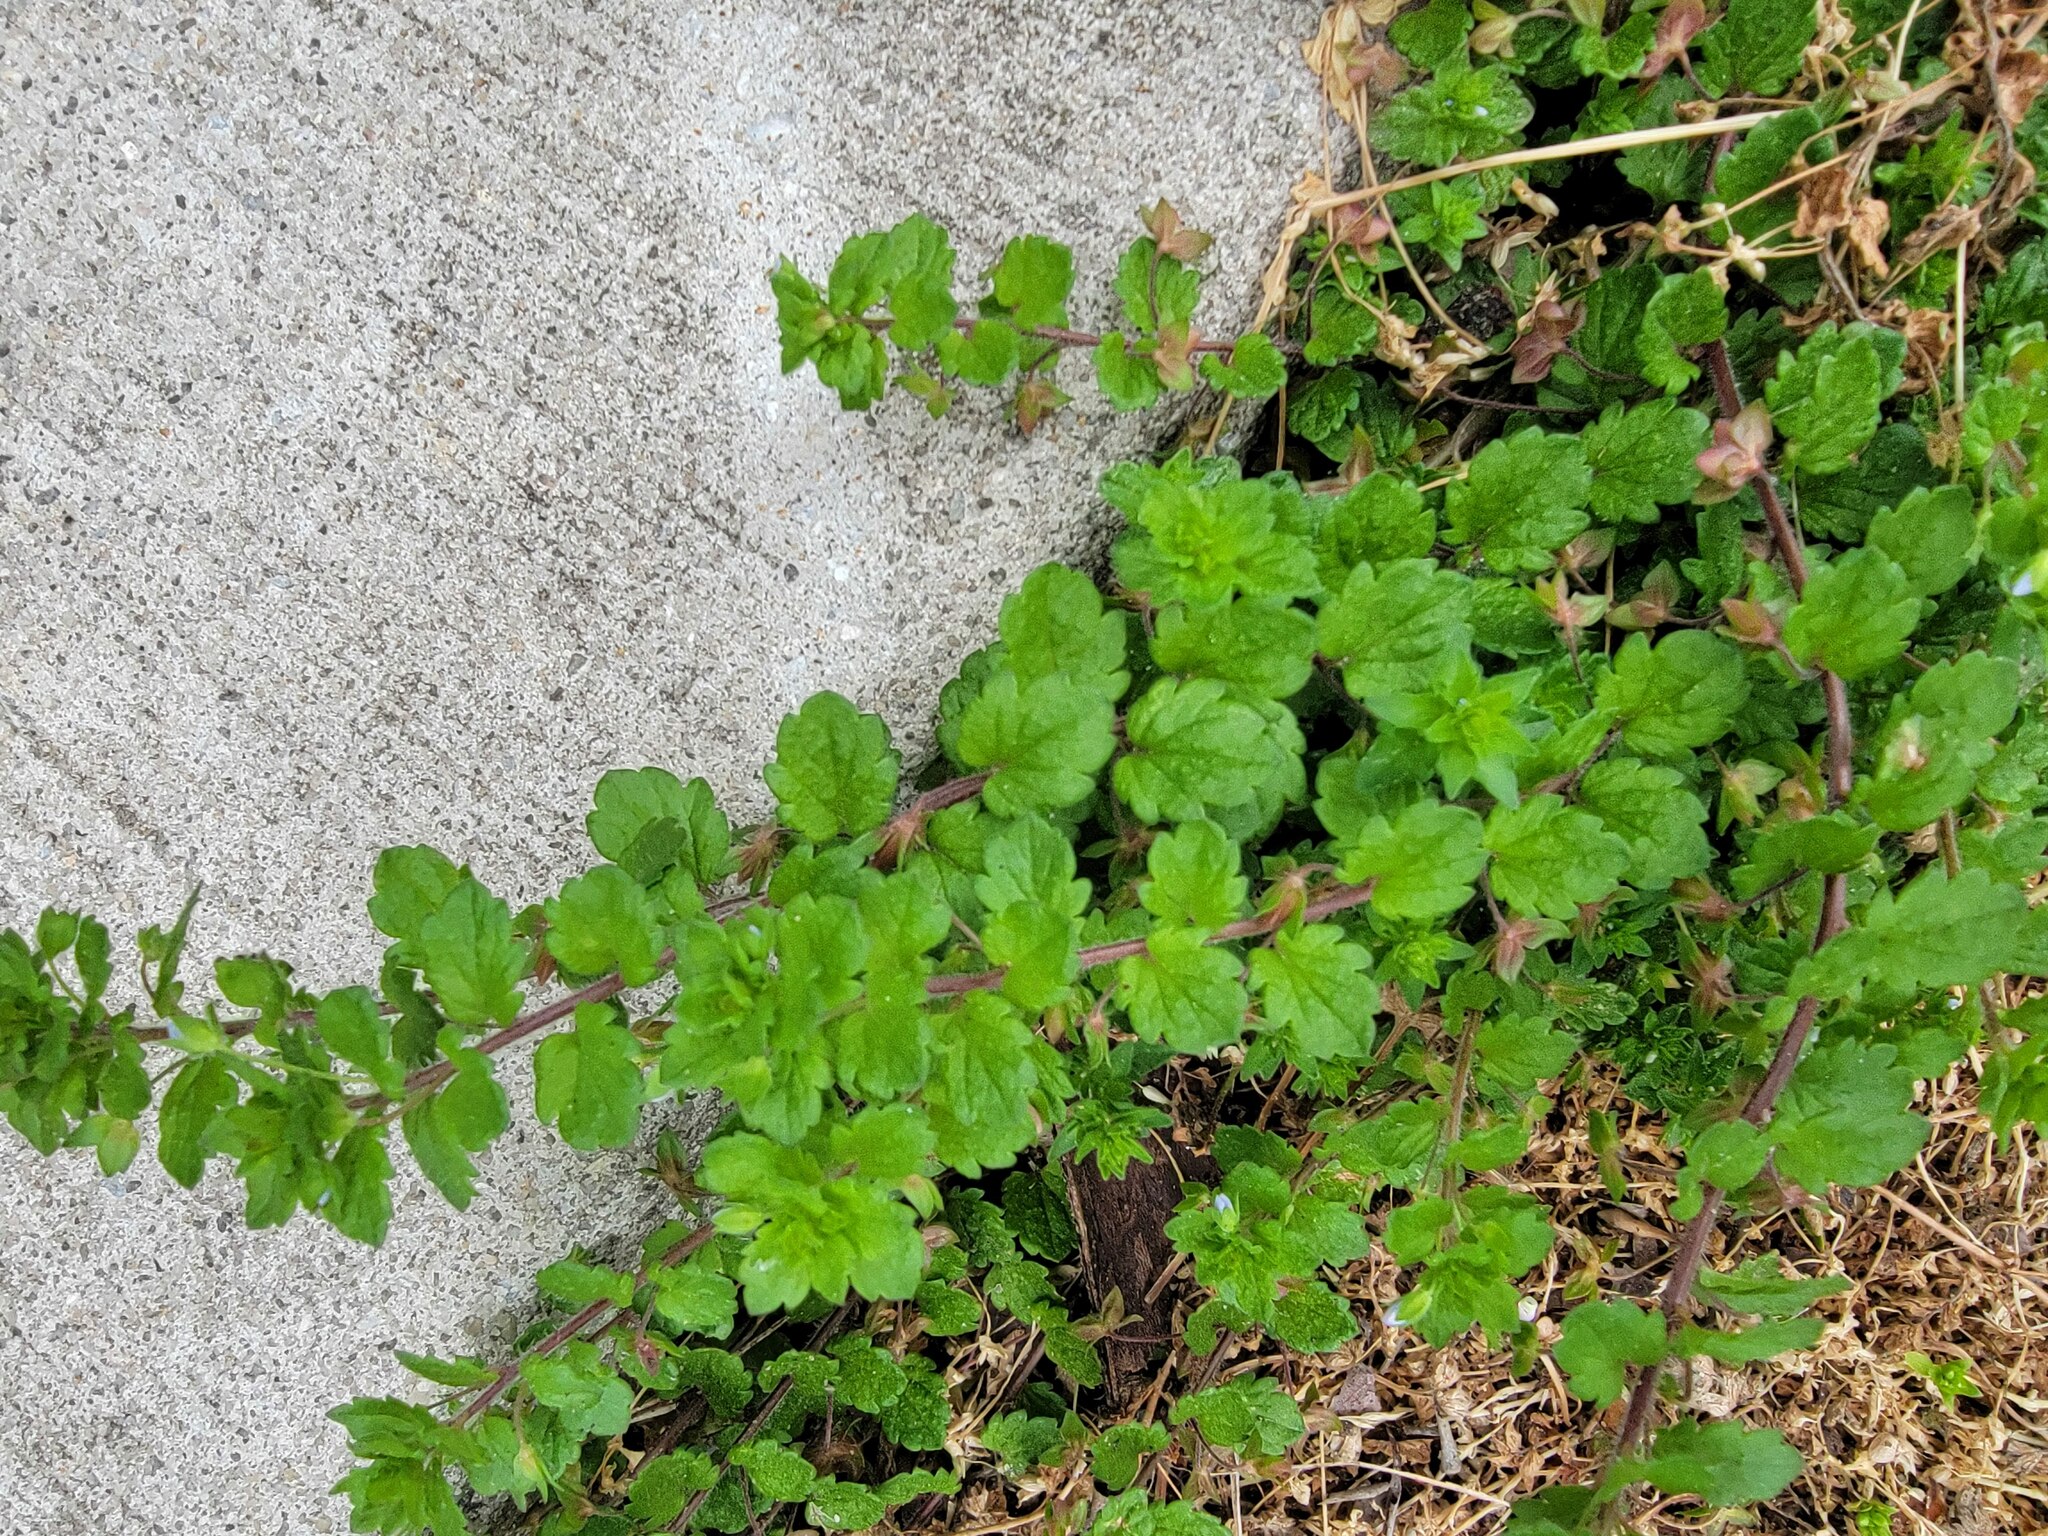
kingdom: Plantae
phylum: Tracheophyta
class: Magnoliopsida
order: Lamiales
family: Plantaginaceae
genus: Veronica
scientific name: Veronica persica
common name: Common field-speedwell
